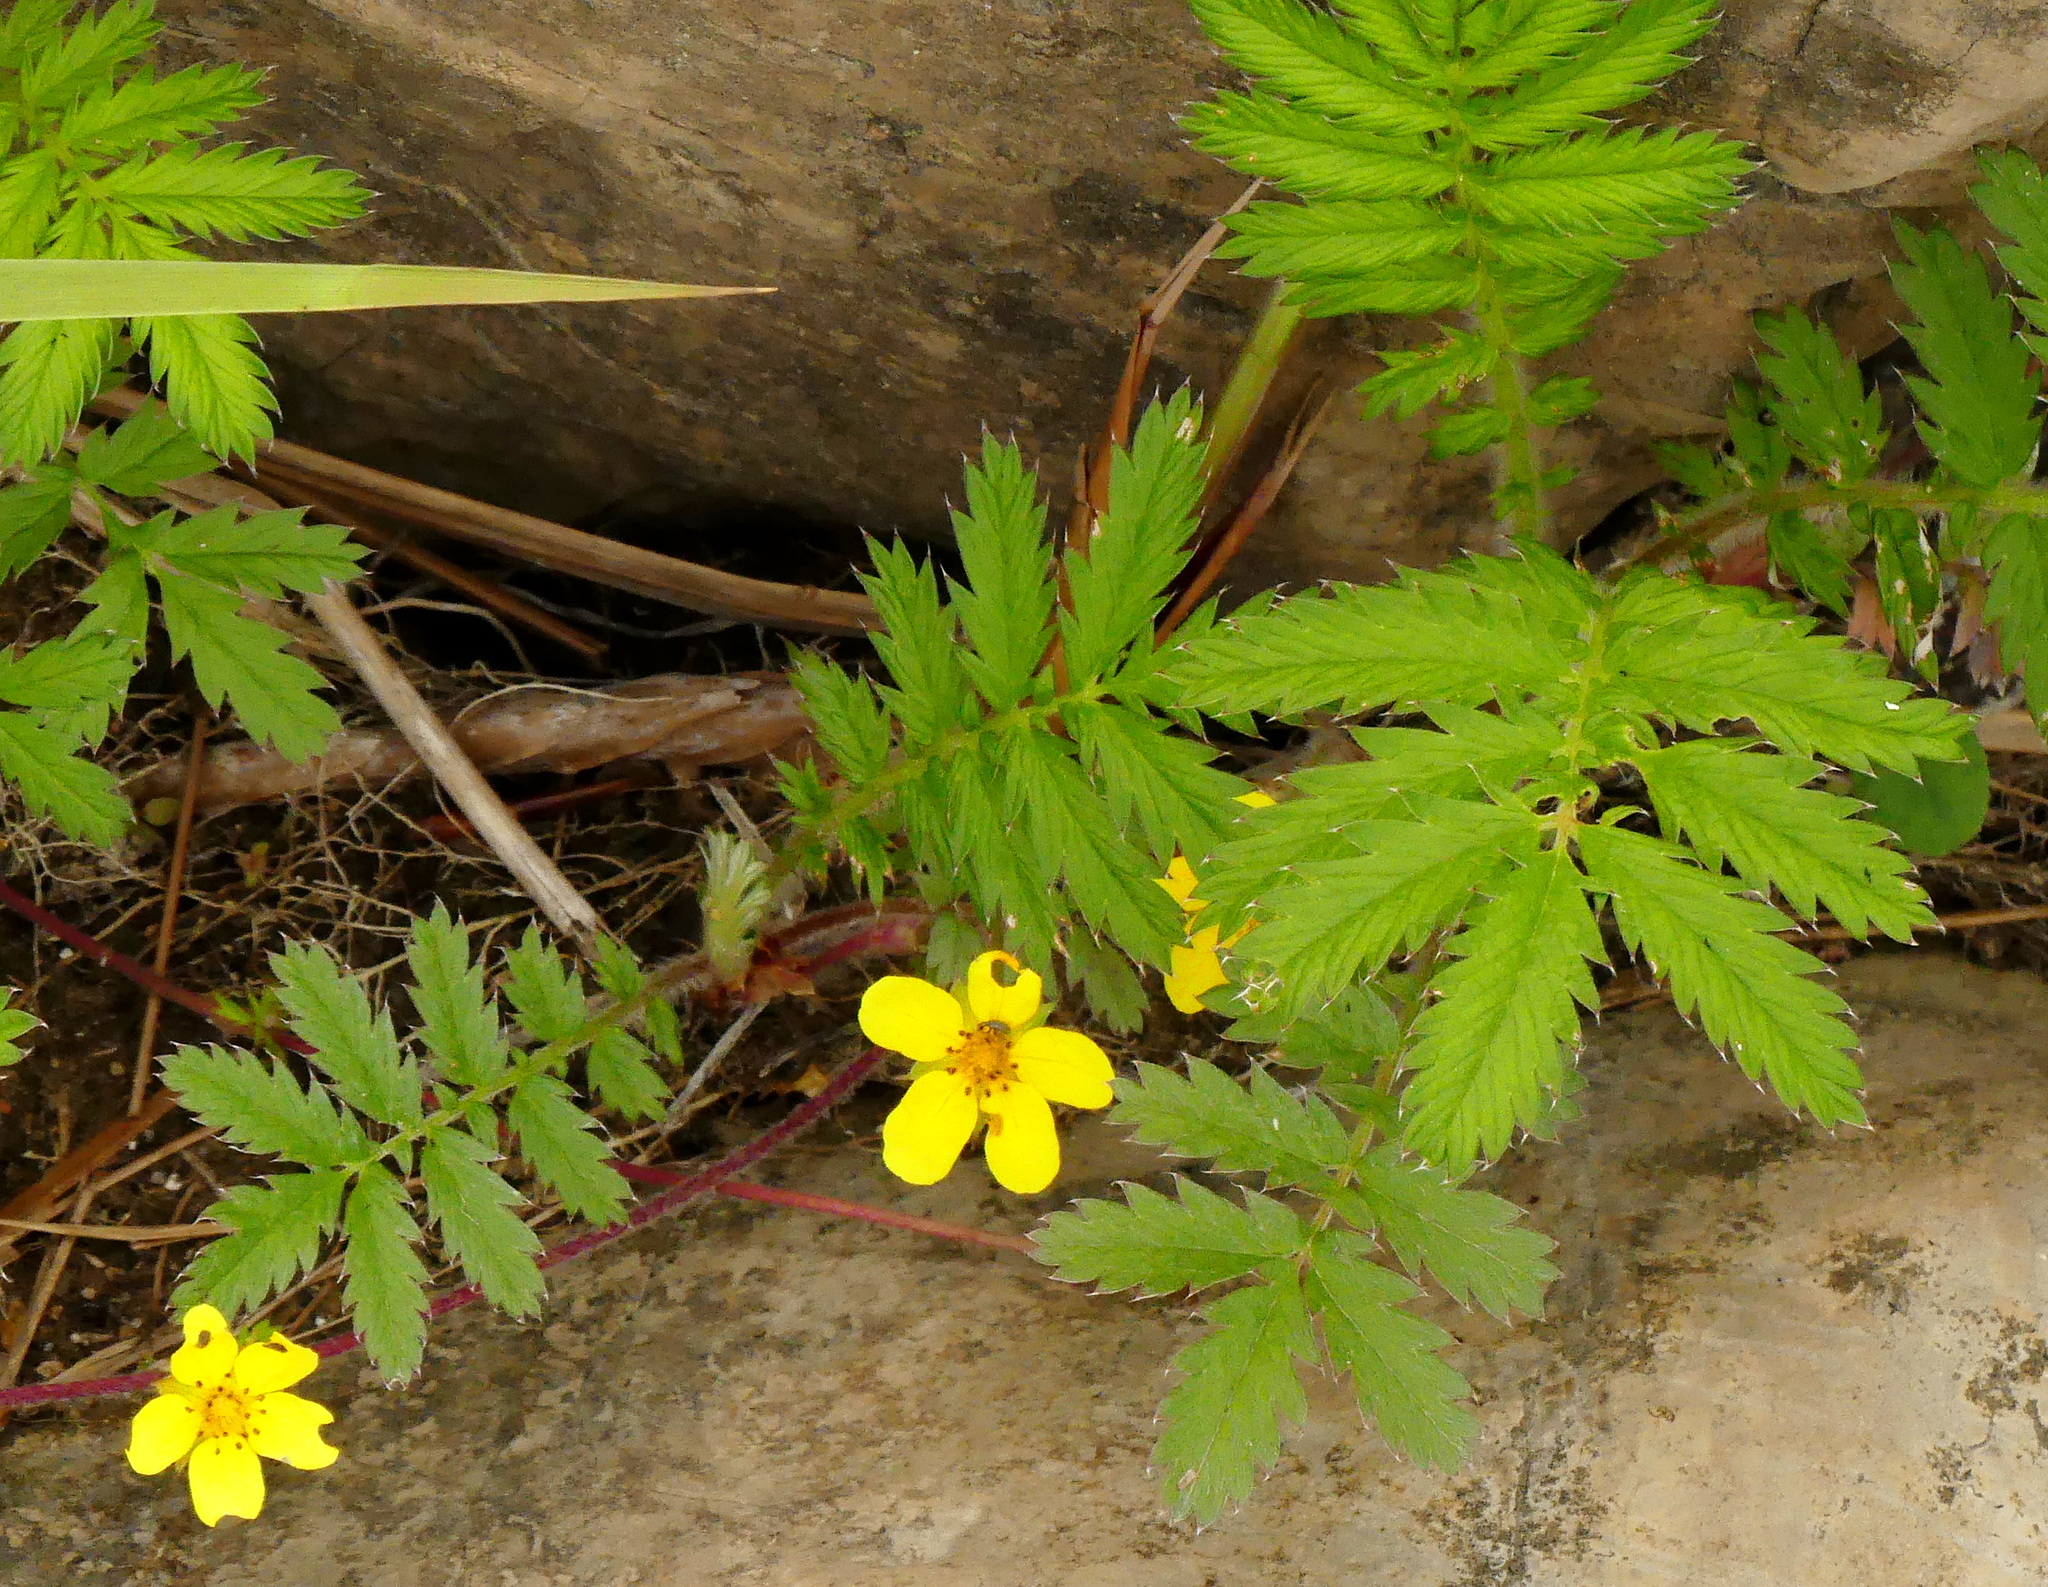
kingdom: Plantae
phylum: Tracheophyta
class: Magnoliopsida
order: Rosales
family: Rosaceae
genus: Argentina
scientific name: Argentina anserina
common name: Common silverweed
